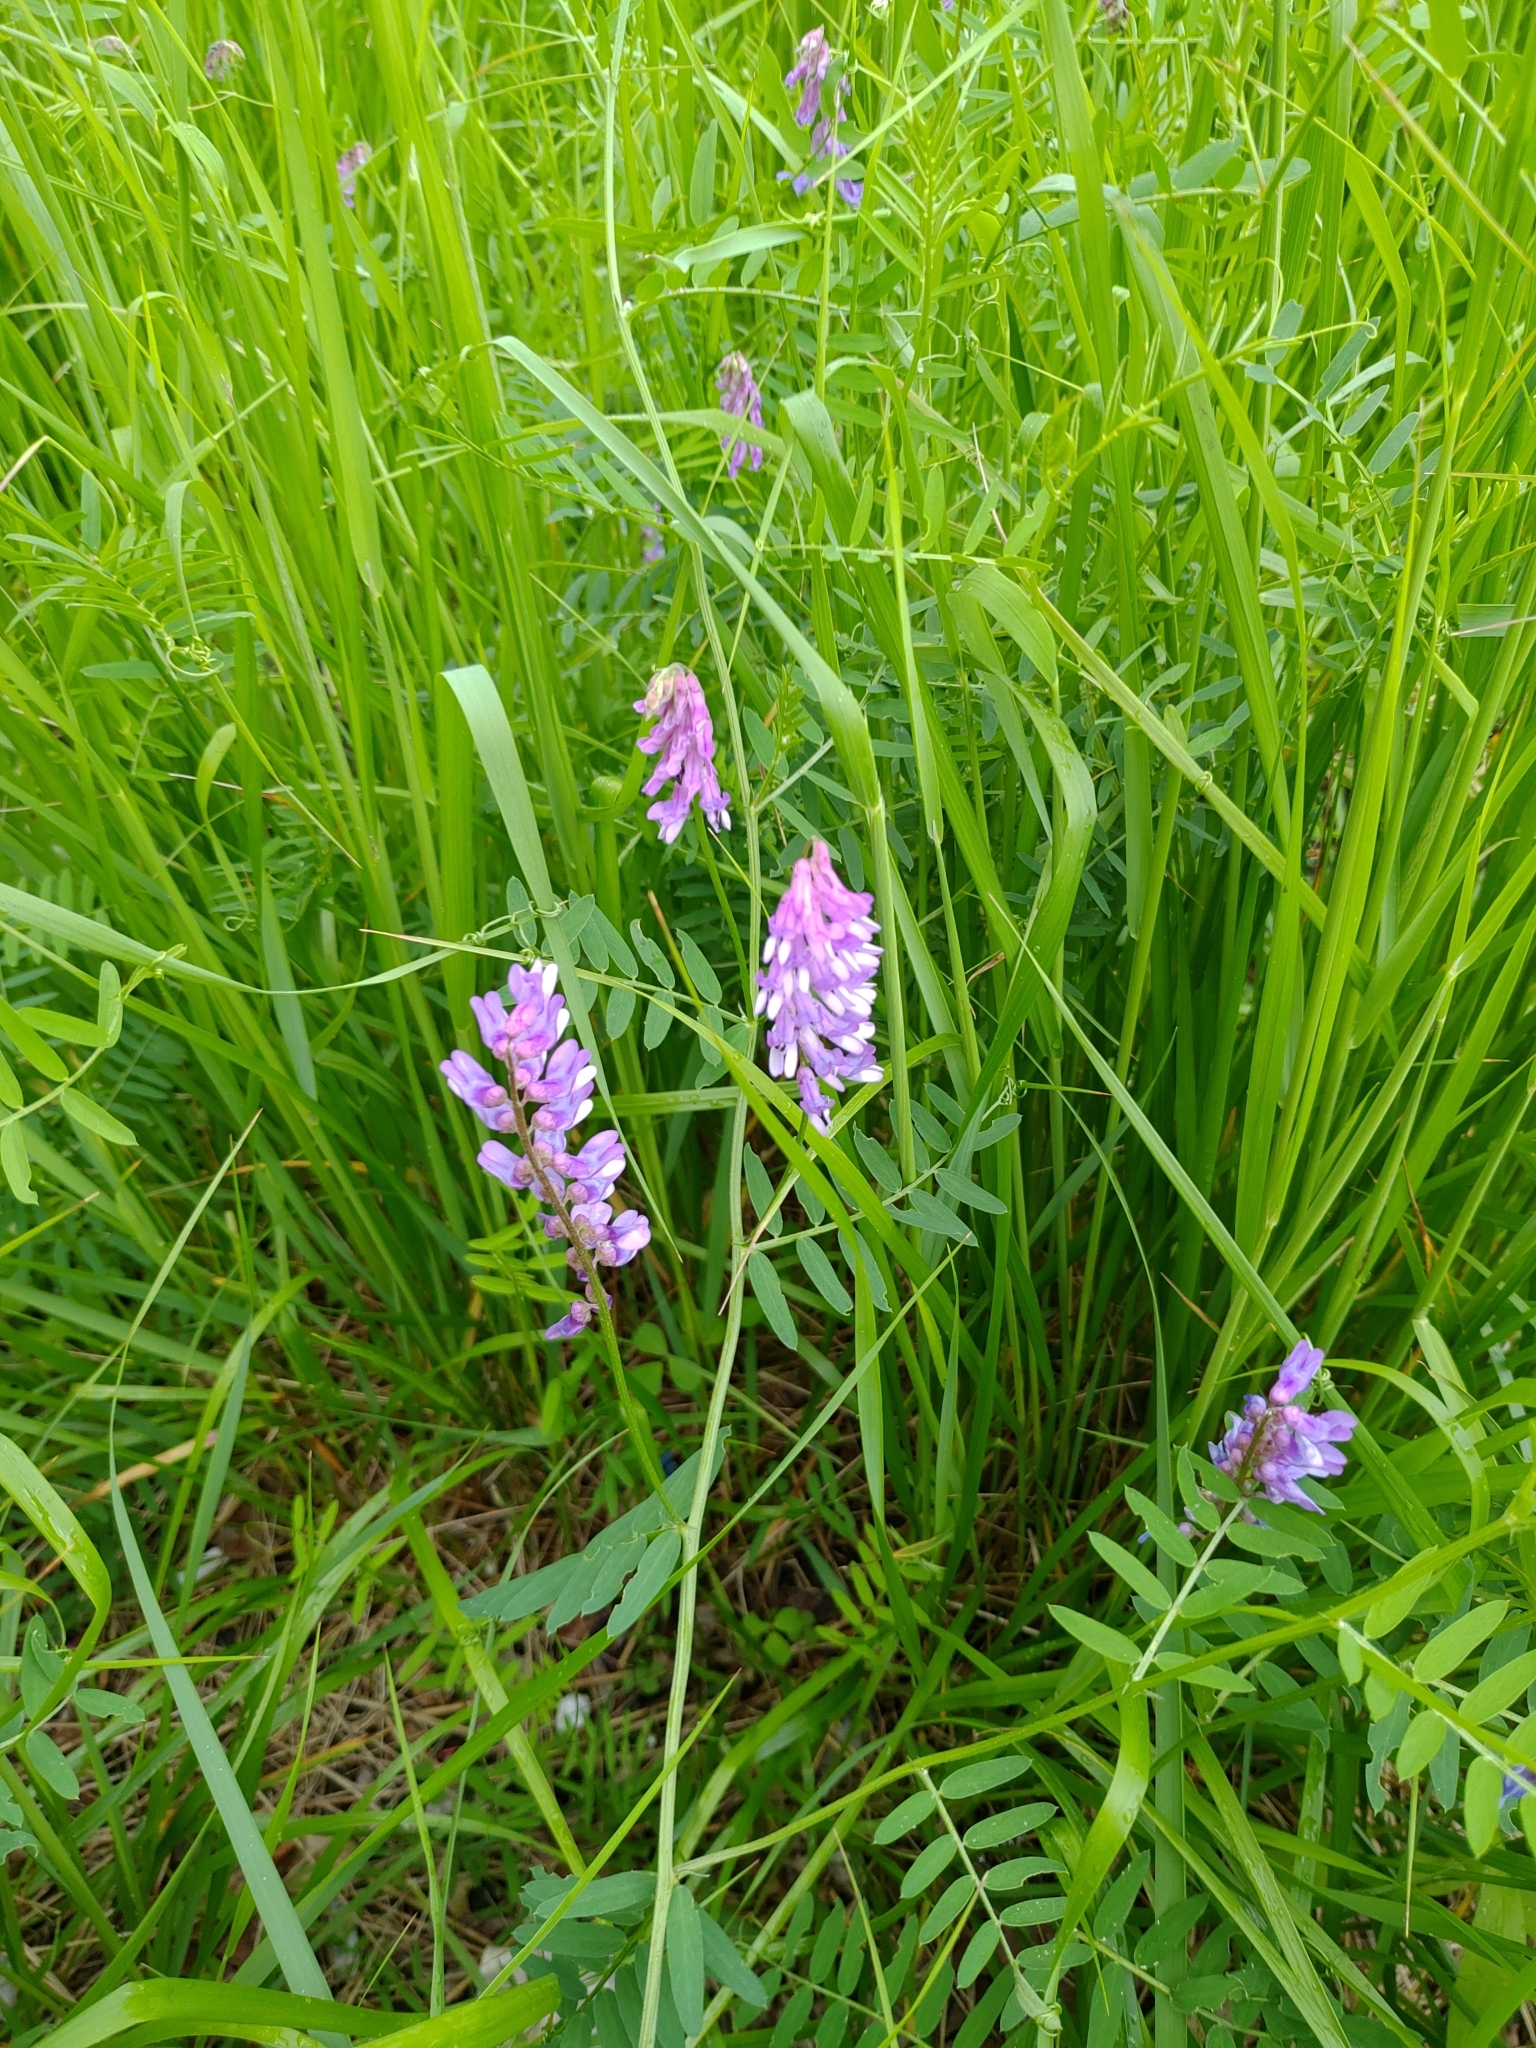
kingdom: Plantae
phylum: Tracheophyta
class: Magnoliopsida
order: Fabales
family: Fabaceae
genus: Vicia
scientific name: Vicia cracca
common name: Bird vetch
